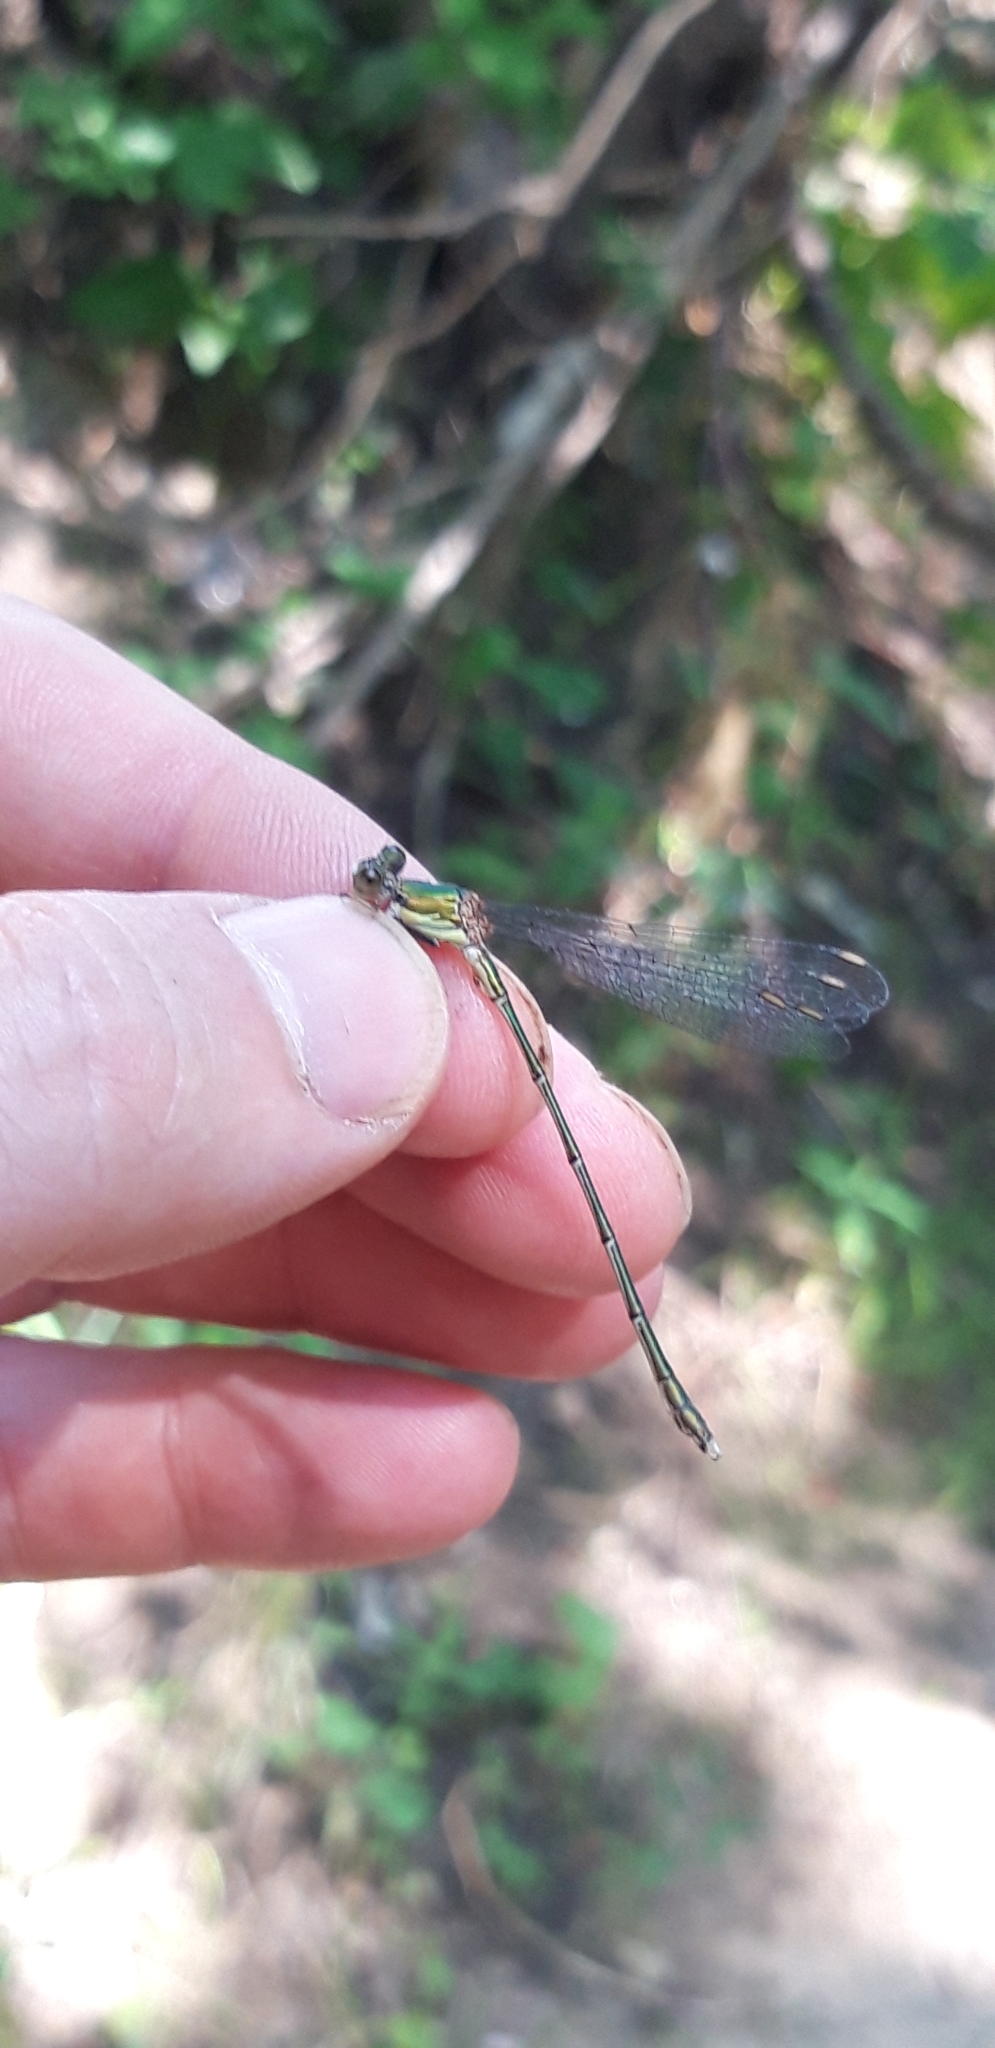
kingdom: Animalia
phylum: Arthropoda
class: Insecta
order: Odonata
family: Lestidae
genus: Chalcolestes
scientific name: Chalcolestes viridis
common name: Green emerald damselfly
